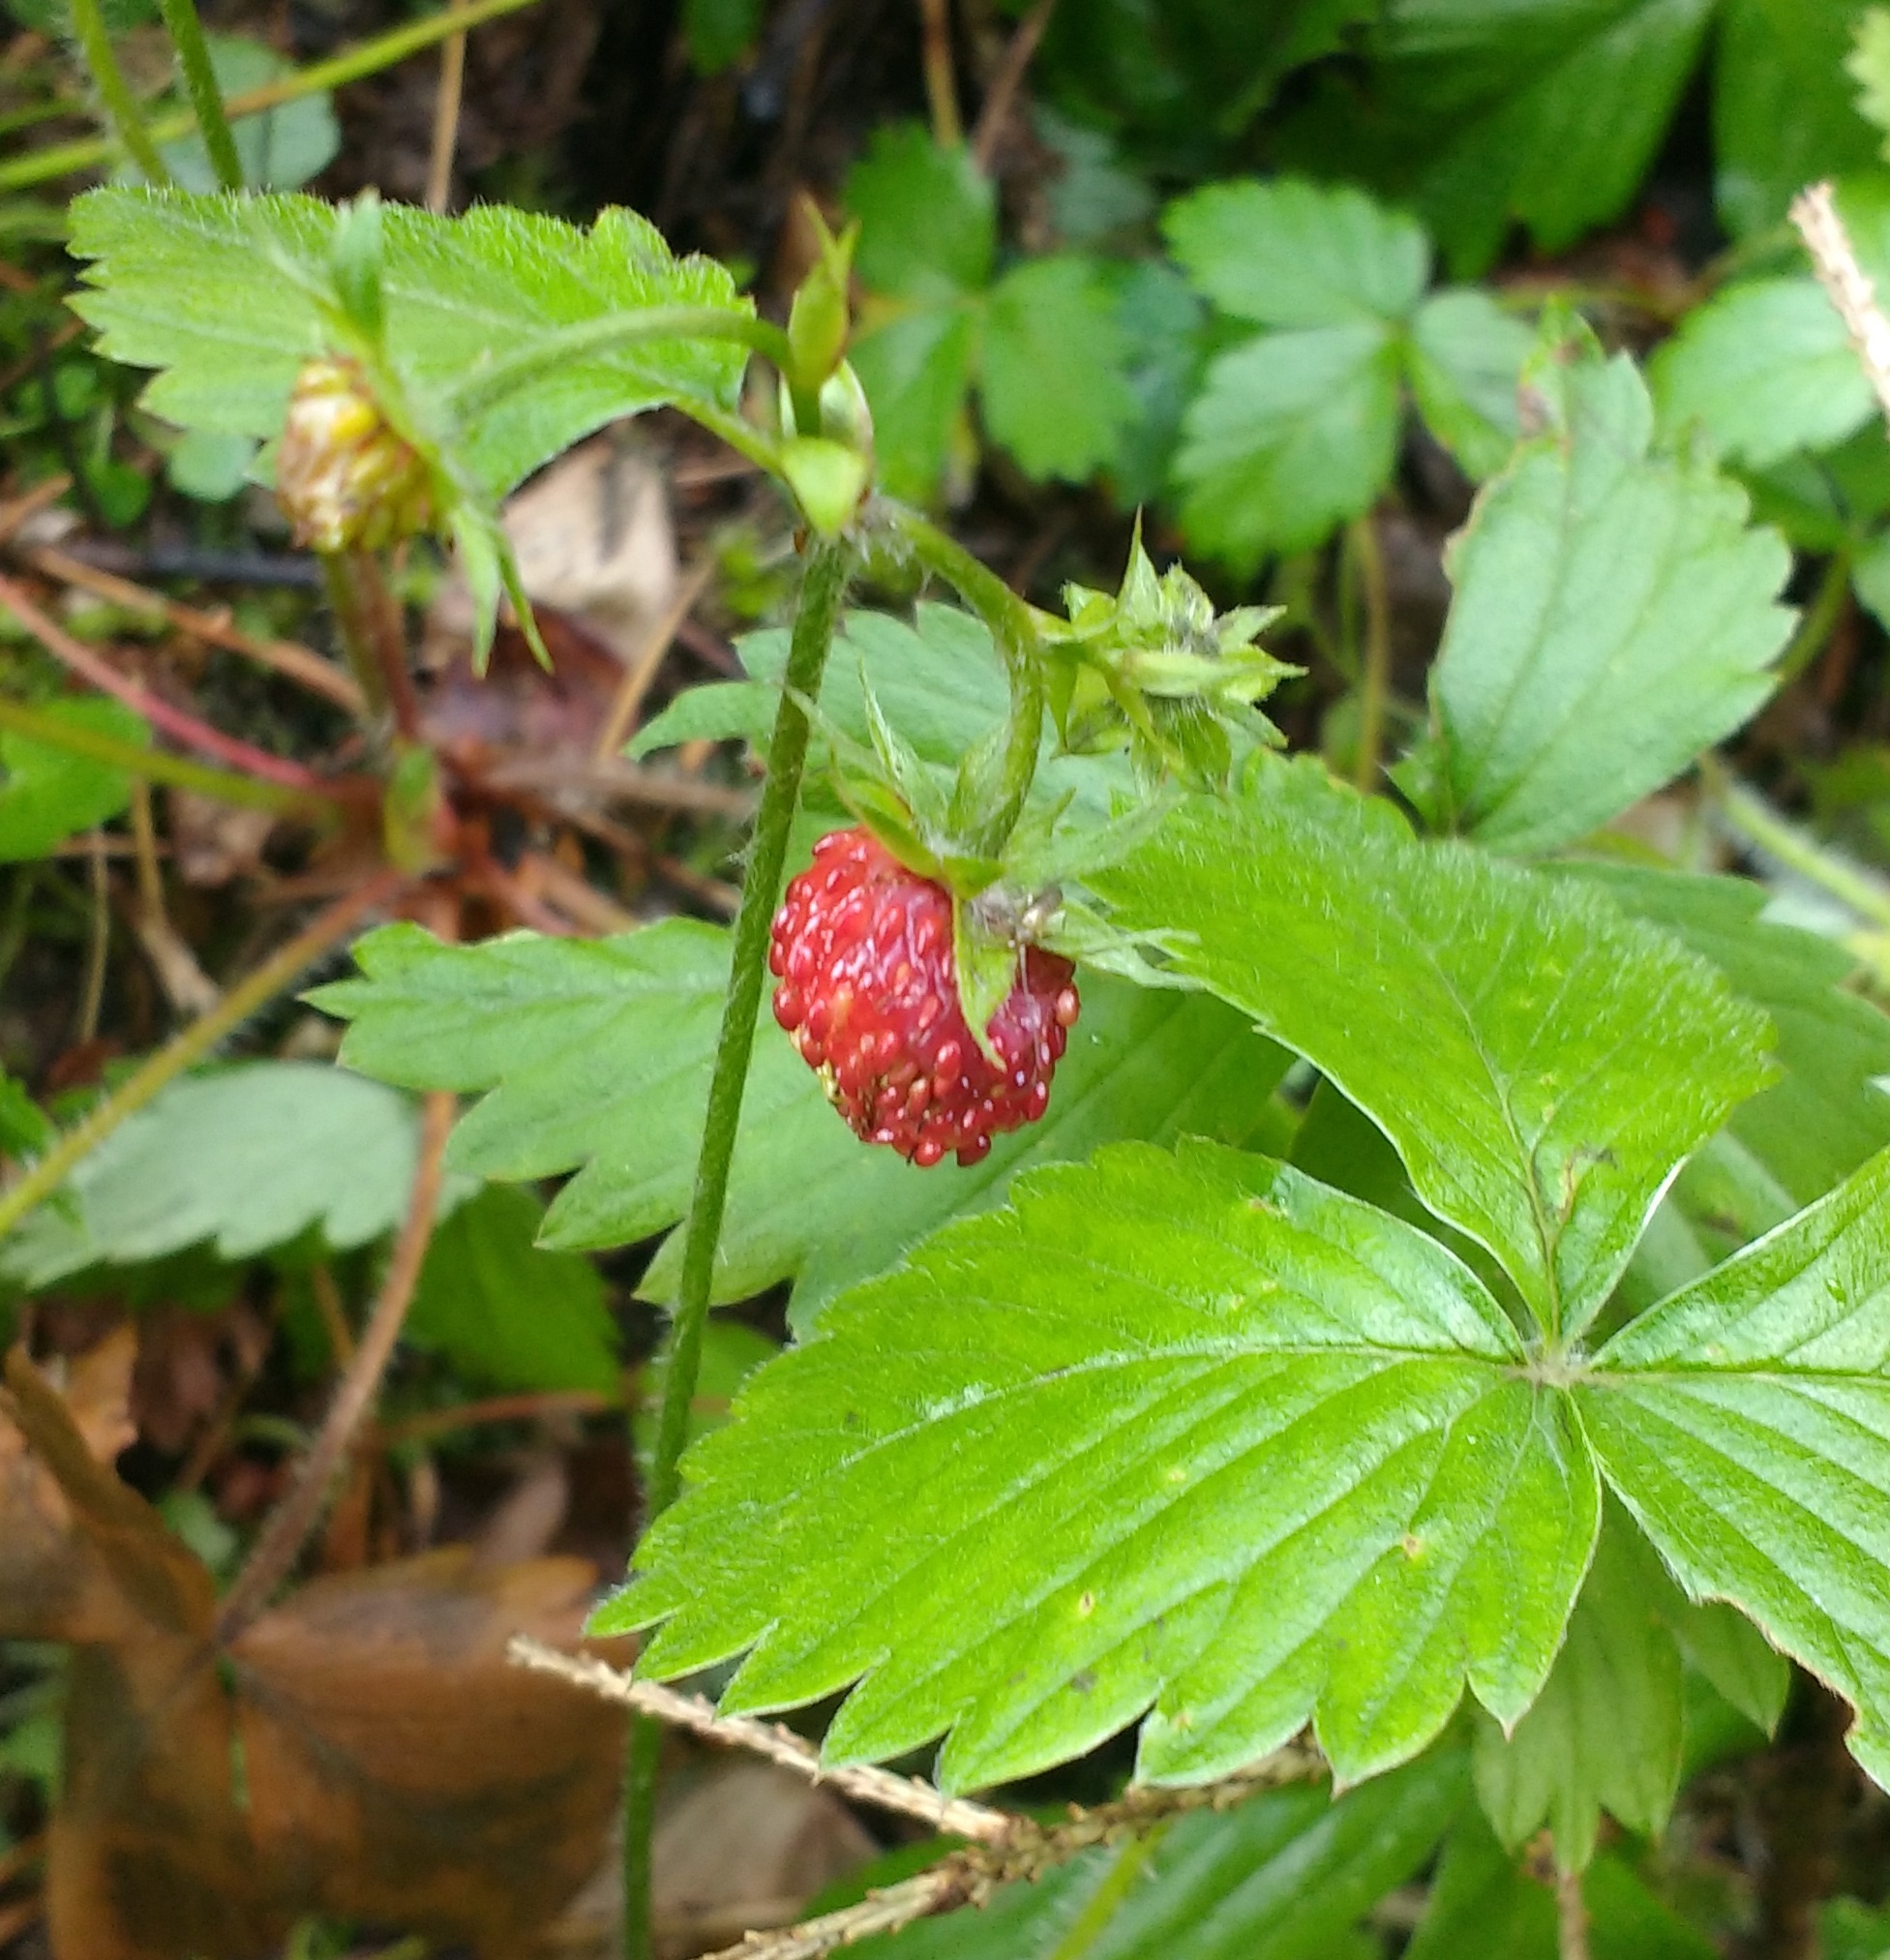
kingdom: Plantae
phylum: Tracheophyta
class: Magnoliopsida
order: Rosales
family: Rosaceae
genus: Fragaria
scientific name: Fragaria vesca
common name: Wild strawberry
